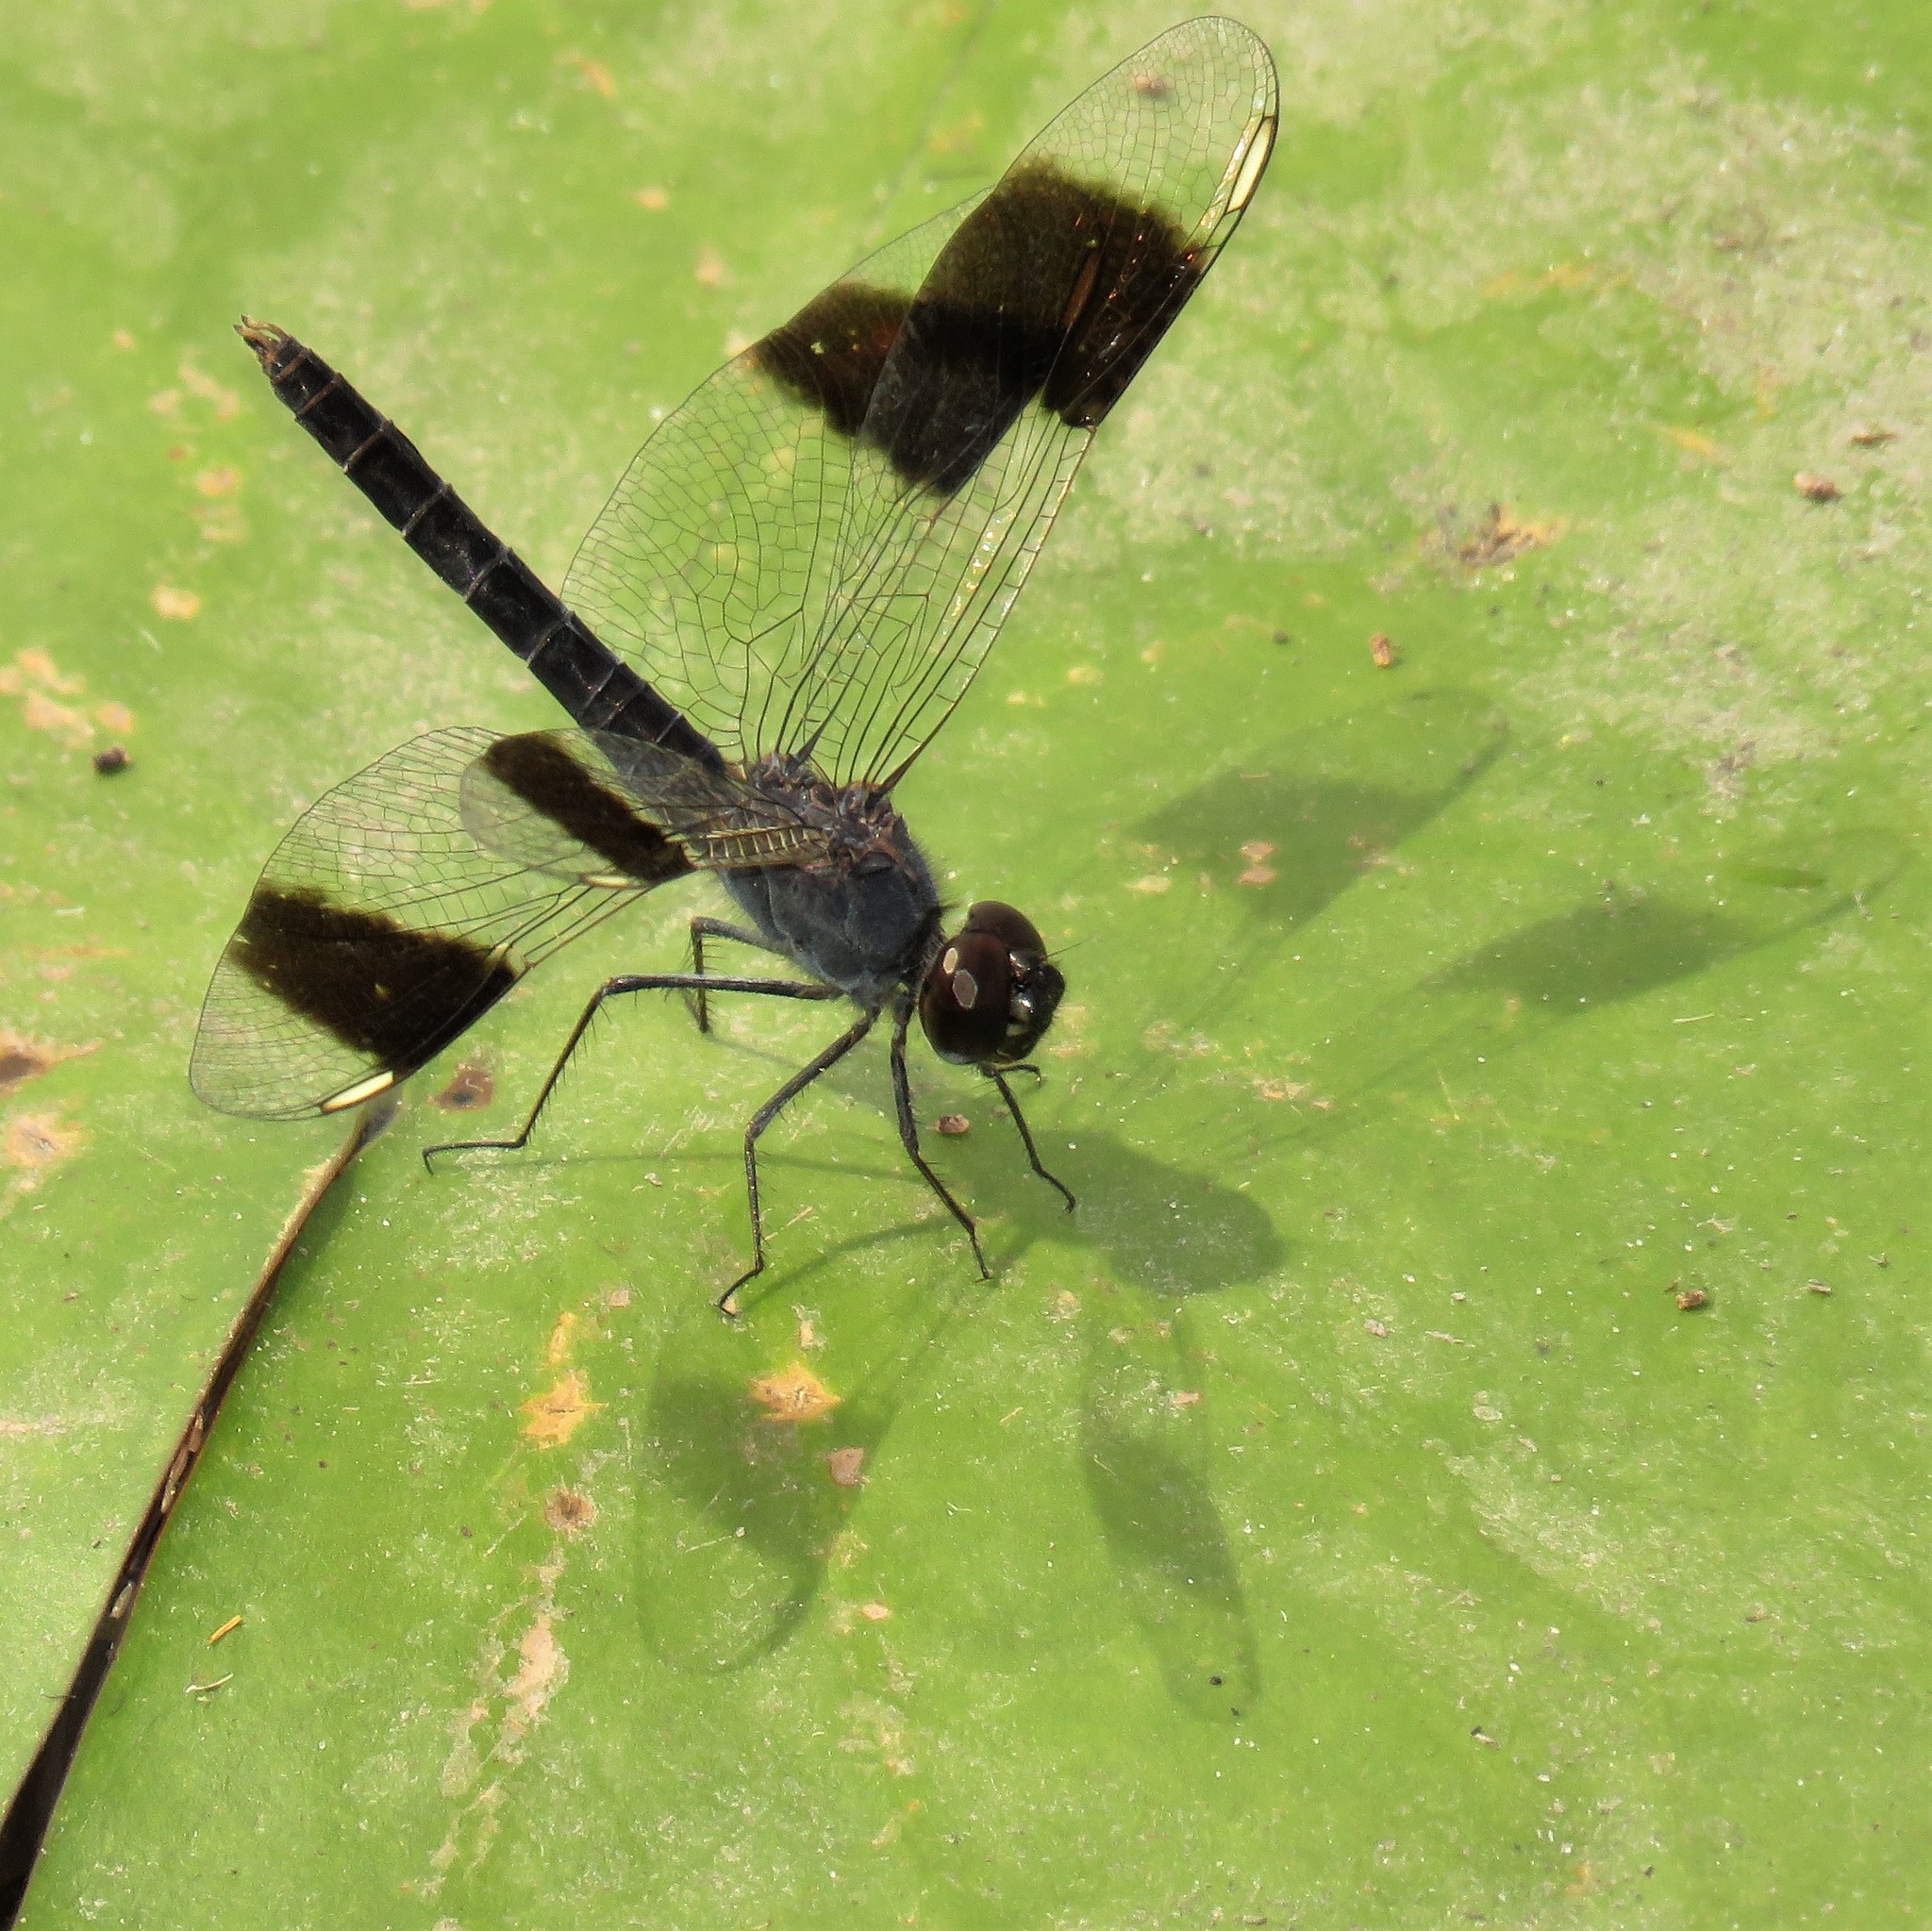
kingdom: Animalia
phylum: Arthropoda
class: Insecta
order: Odonata
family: Libellulidae
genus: Brachythemis
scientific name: Brachythemis leucosticta
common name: Banded groundling
